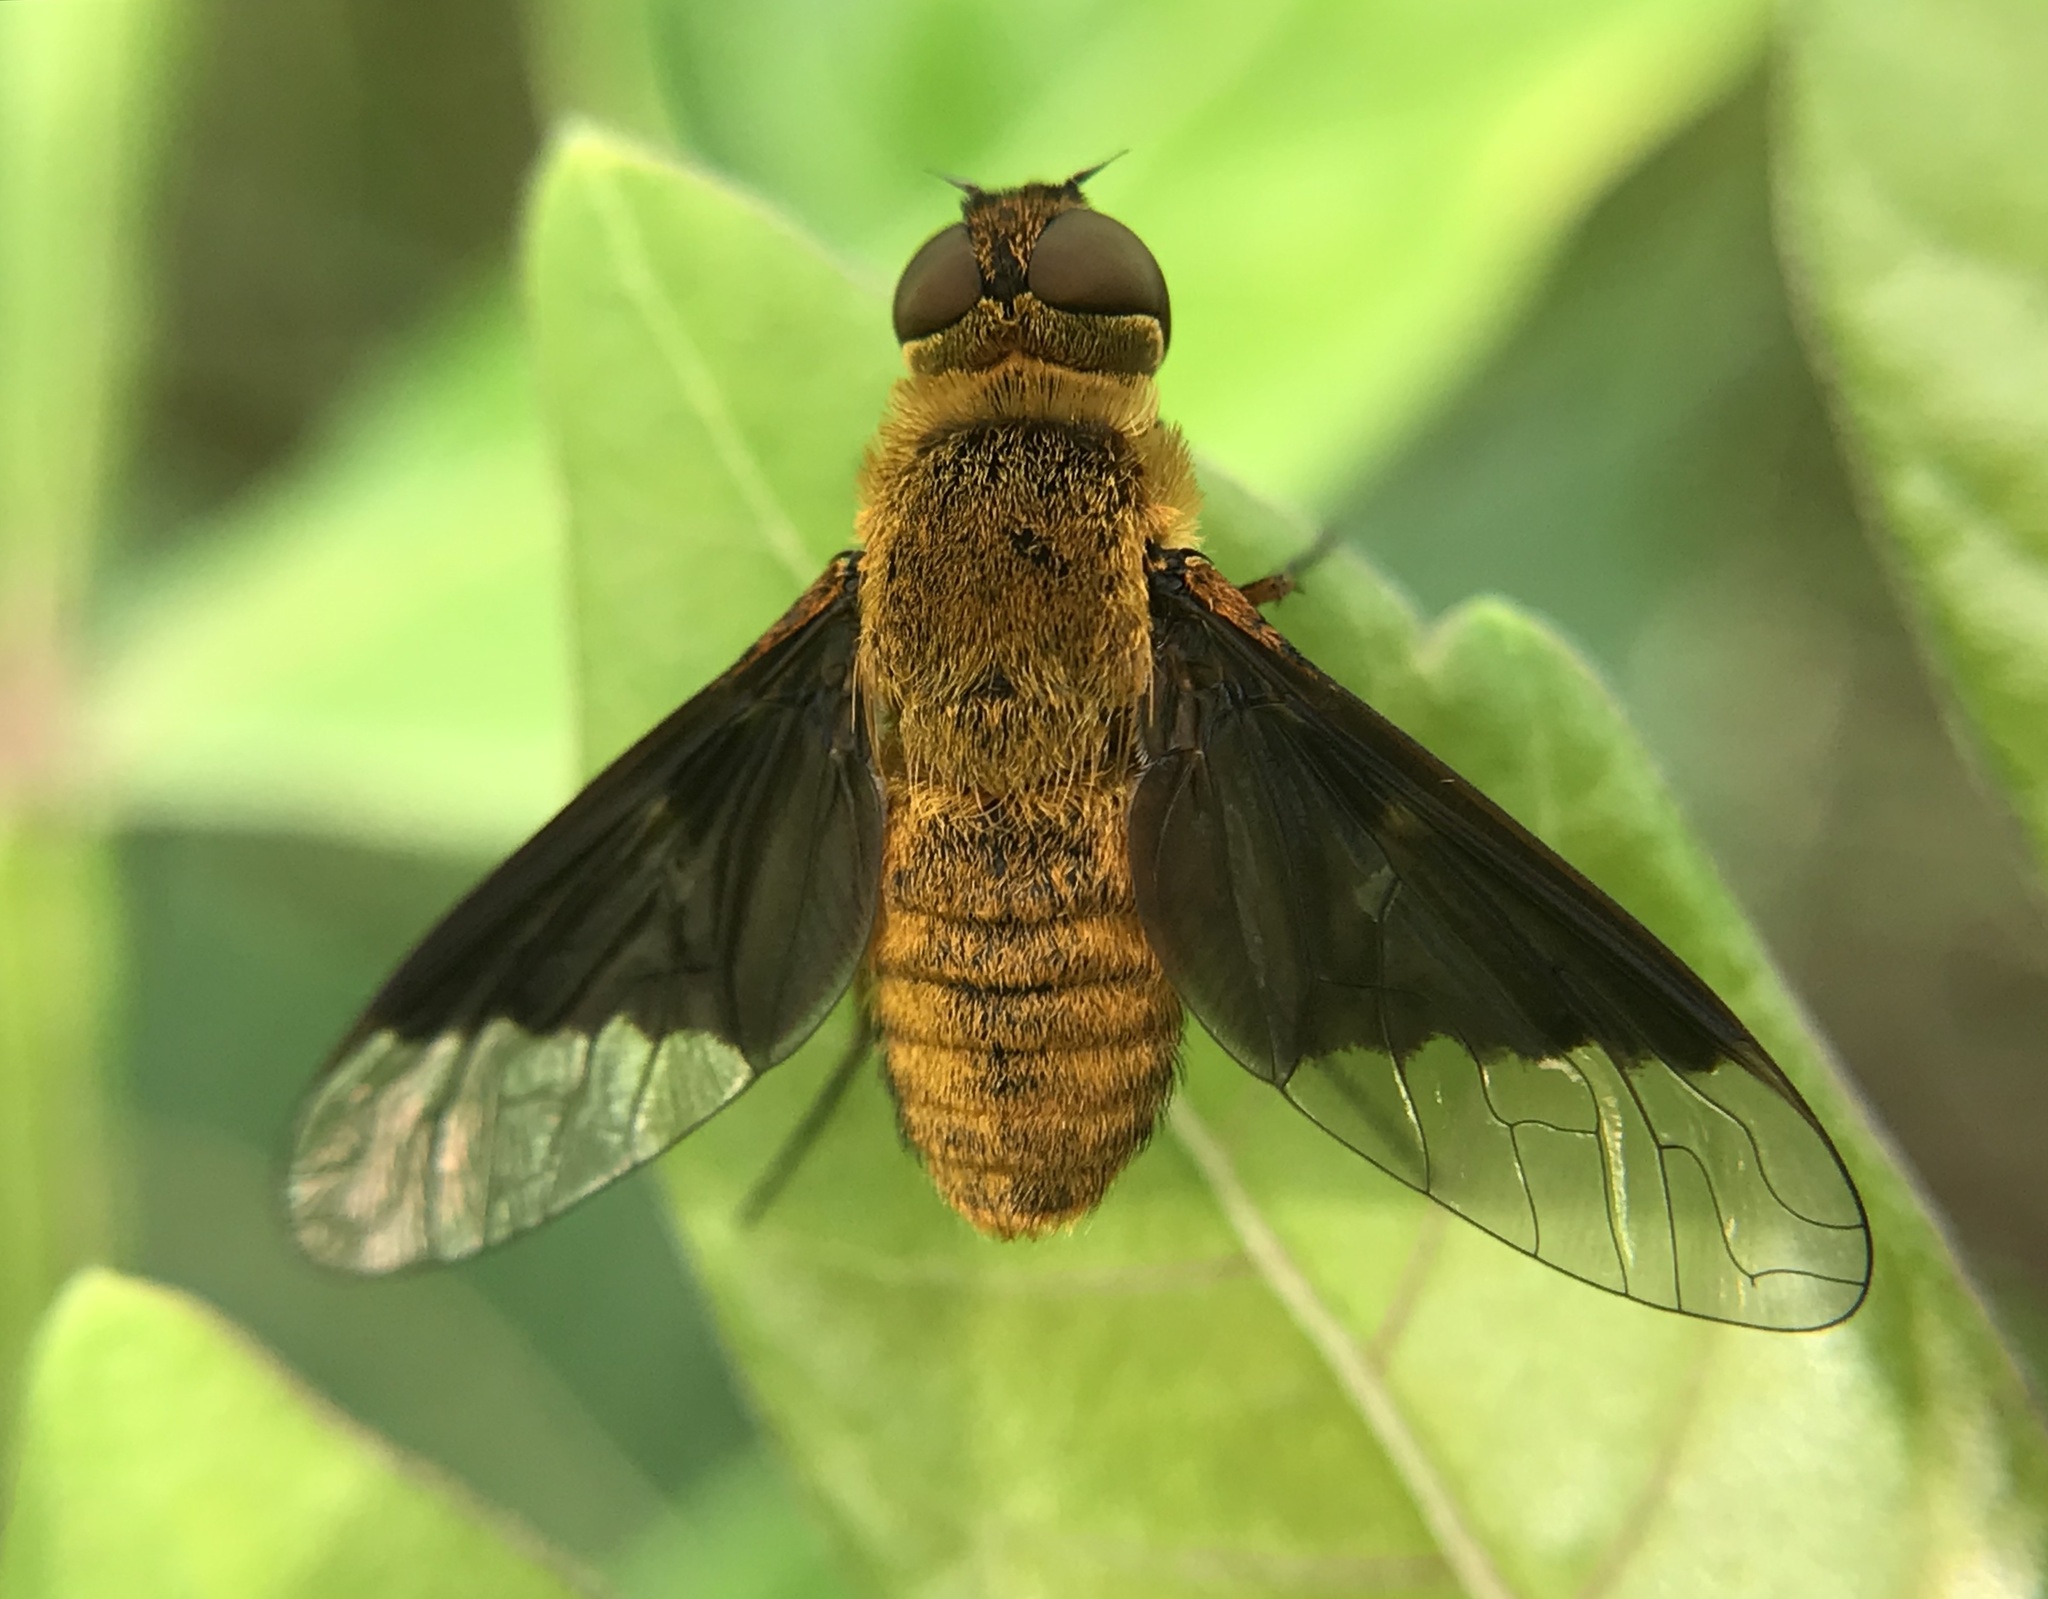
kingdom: Animalia
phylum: Arthropoda
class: Insecta
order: Diptera
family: Bombyliidae
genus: Chrysanthrax
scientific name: Chrysanthrax cypris
